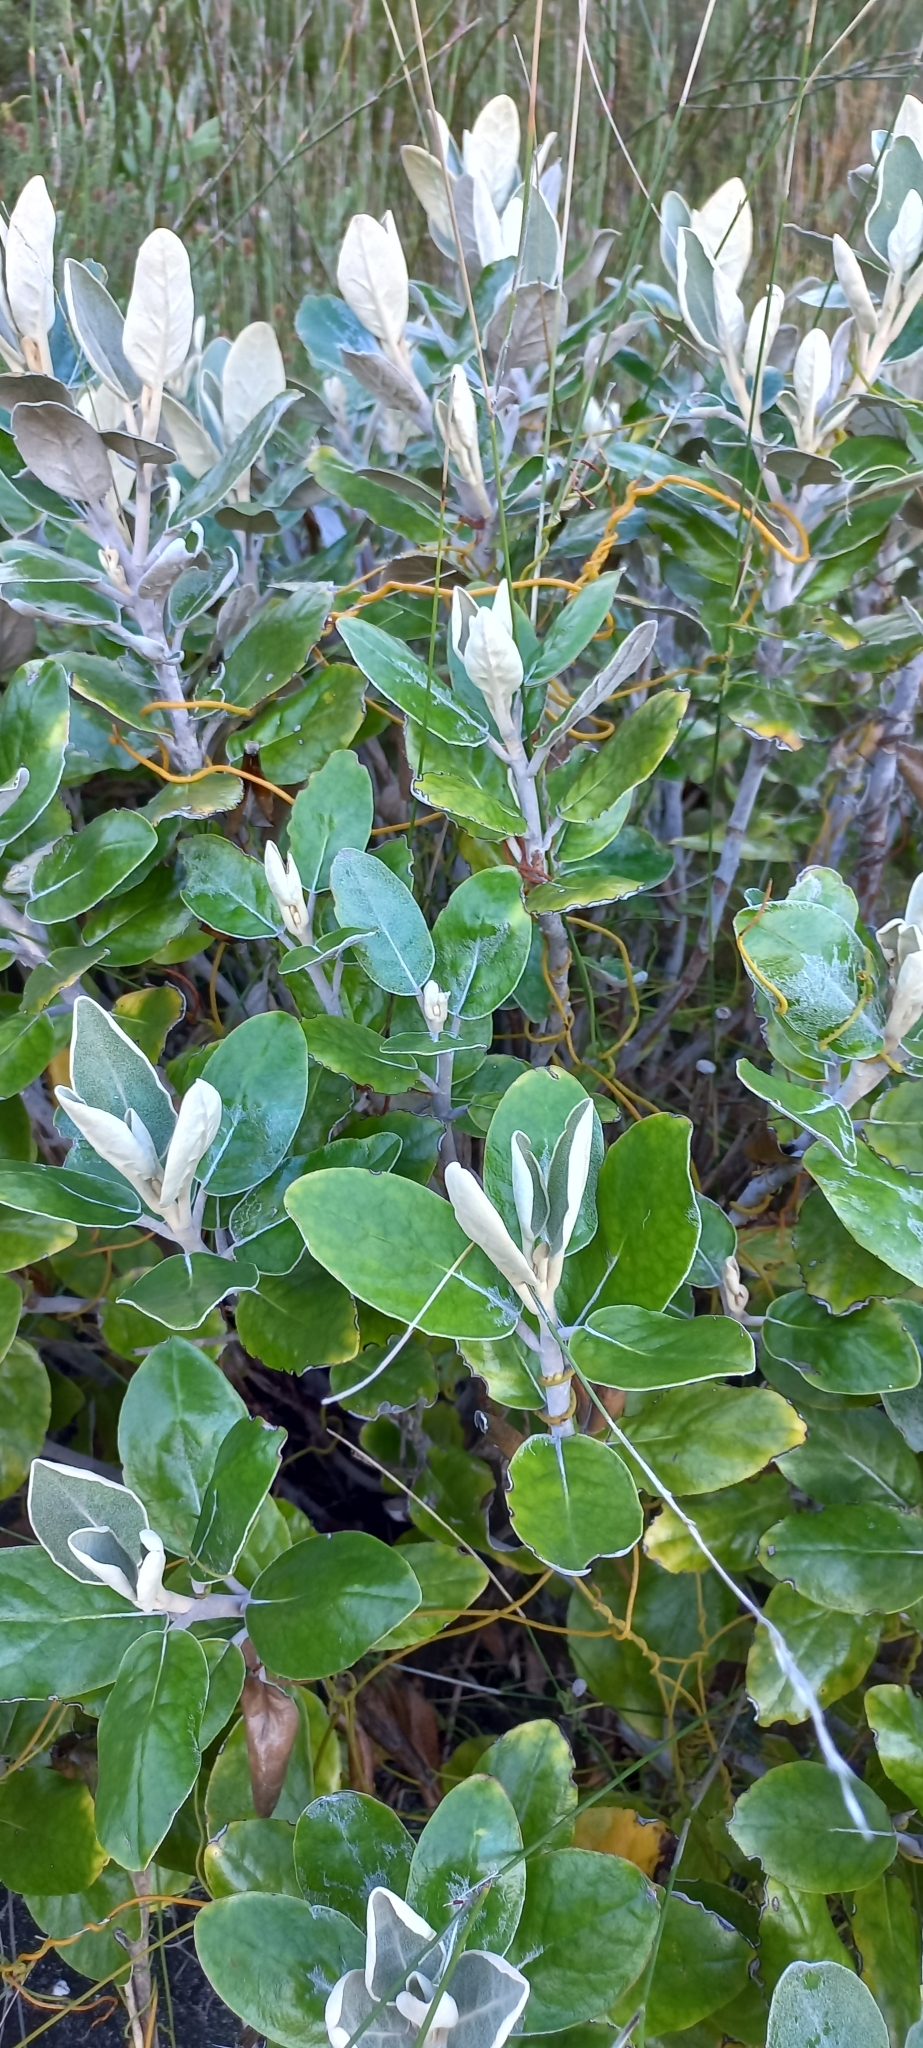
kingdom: Plantae
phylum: Tracheophyta
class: Magnoliopsida
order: Asterales
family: Asteraceae
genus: Capelio
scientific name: Capelio tabularis
